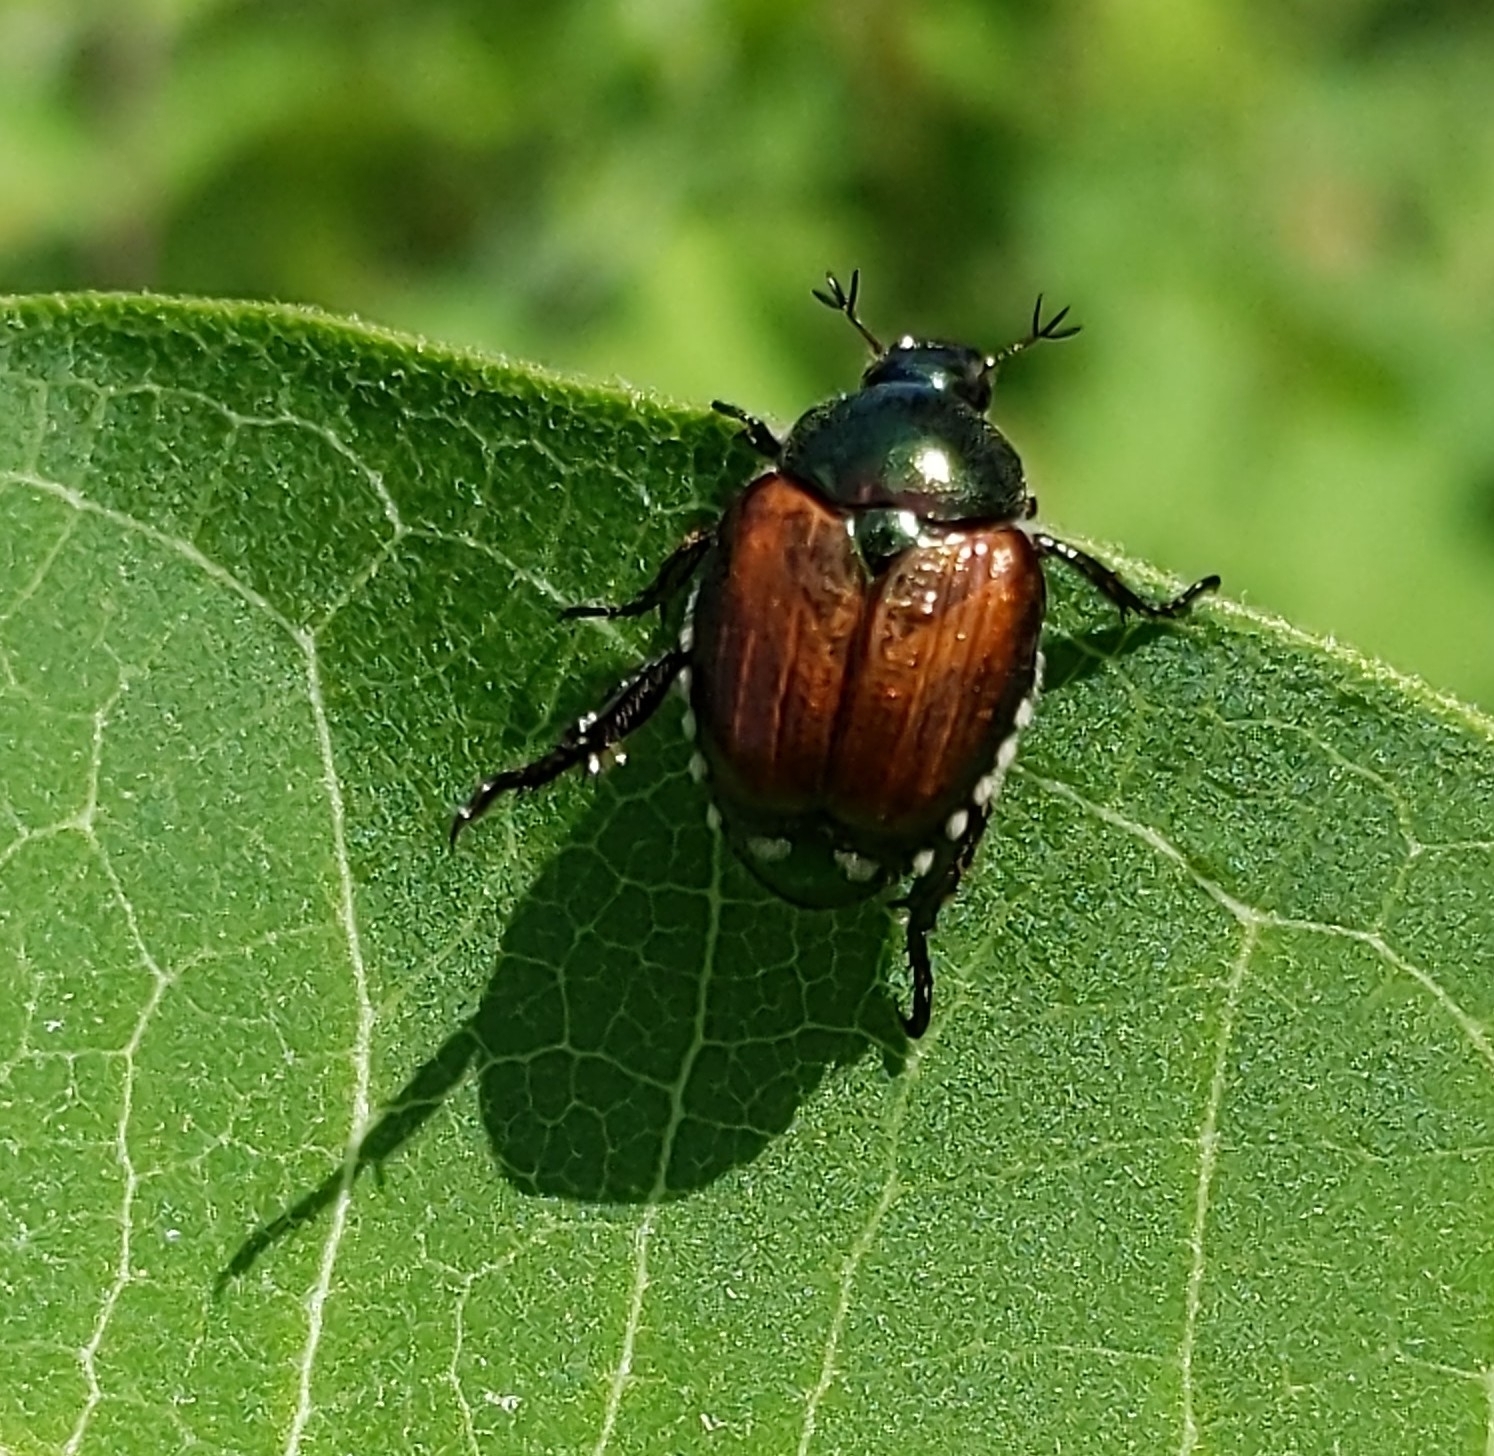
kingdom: Animalia
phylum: Arthropoda
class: Insecta
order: Coleoptera
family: Scarabaeidae
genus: Popillia
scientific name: Popillia japonica
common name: Japanese beetle
